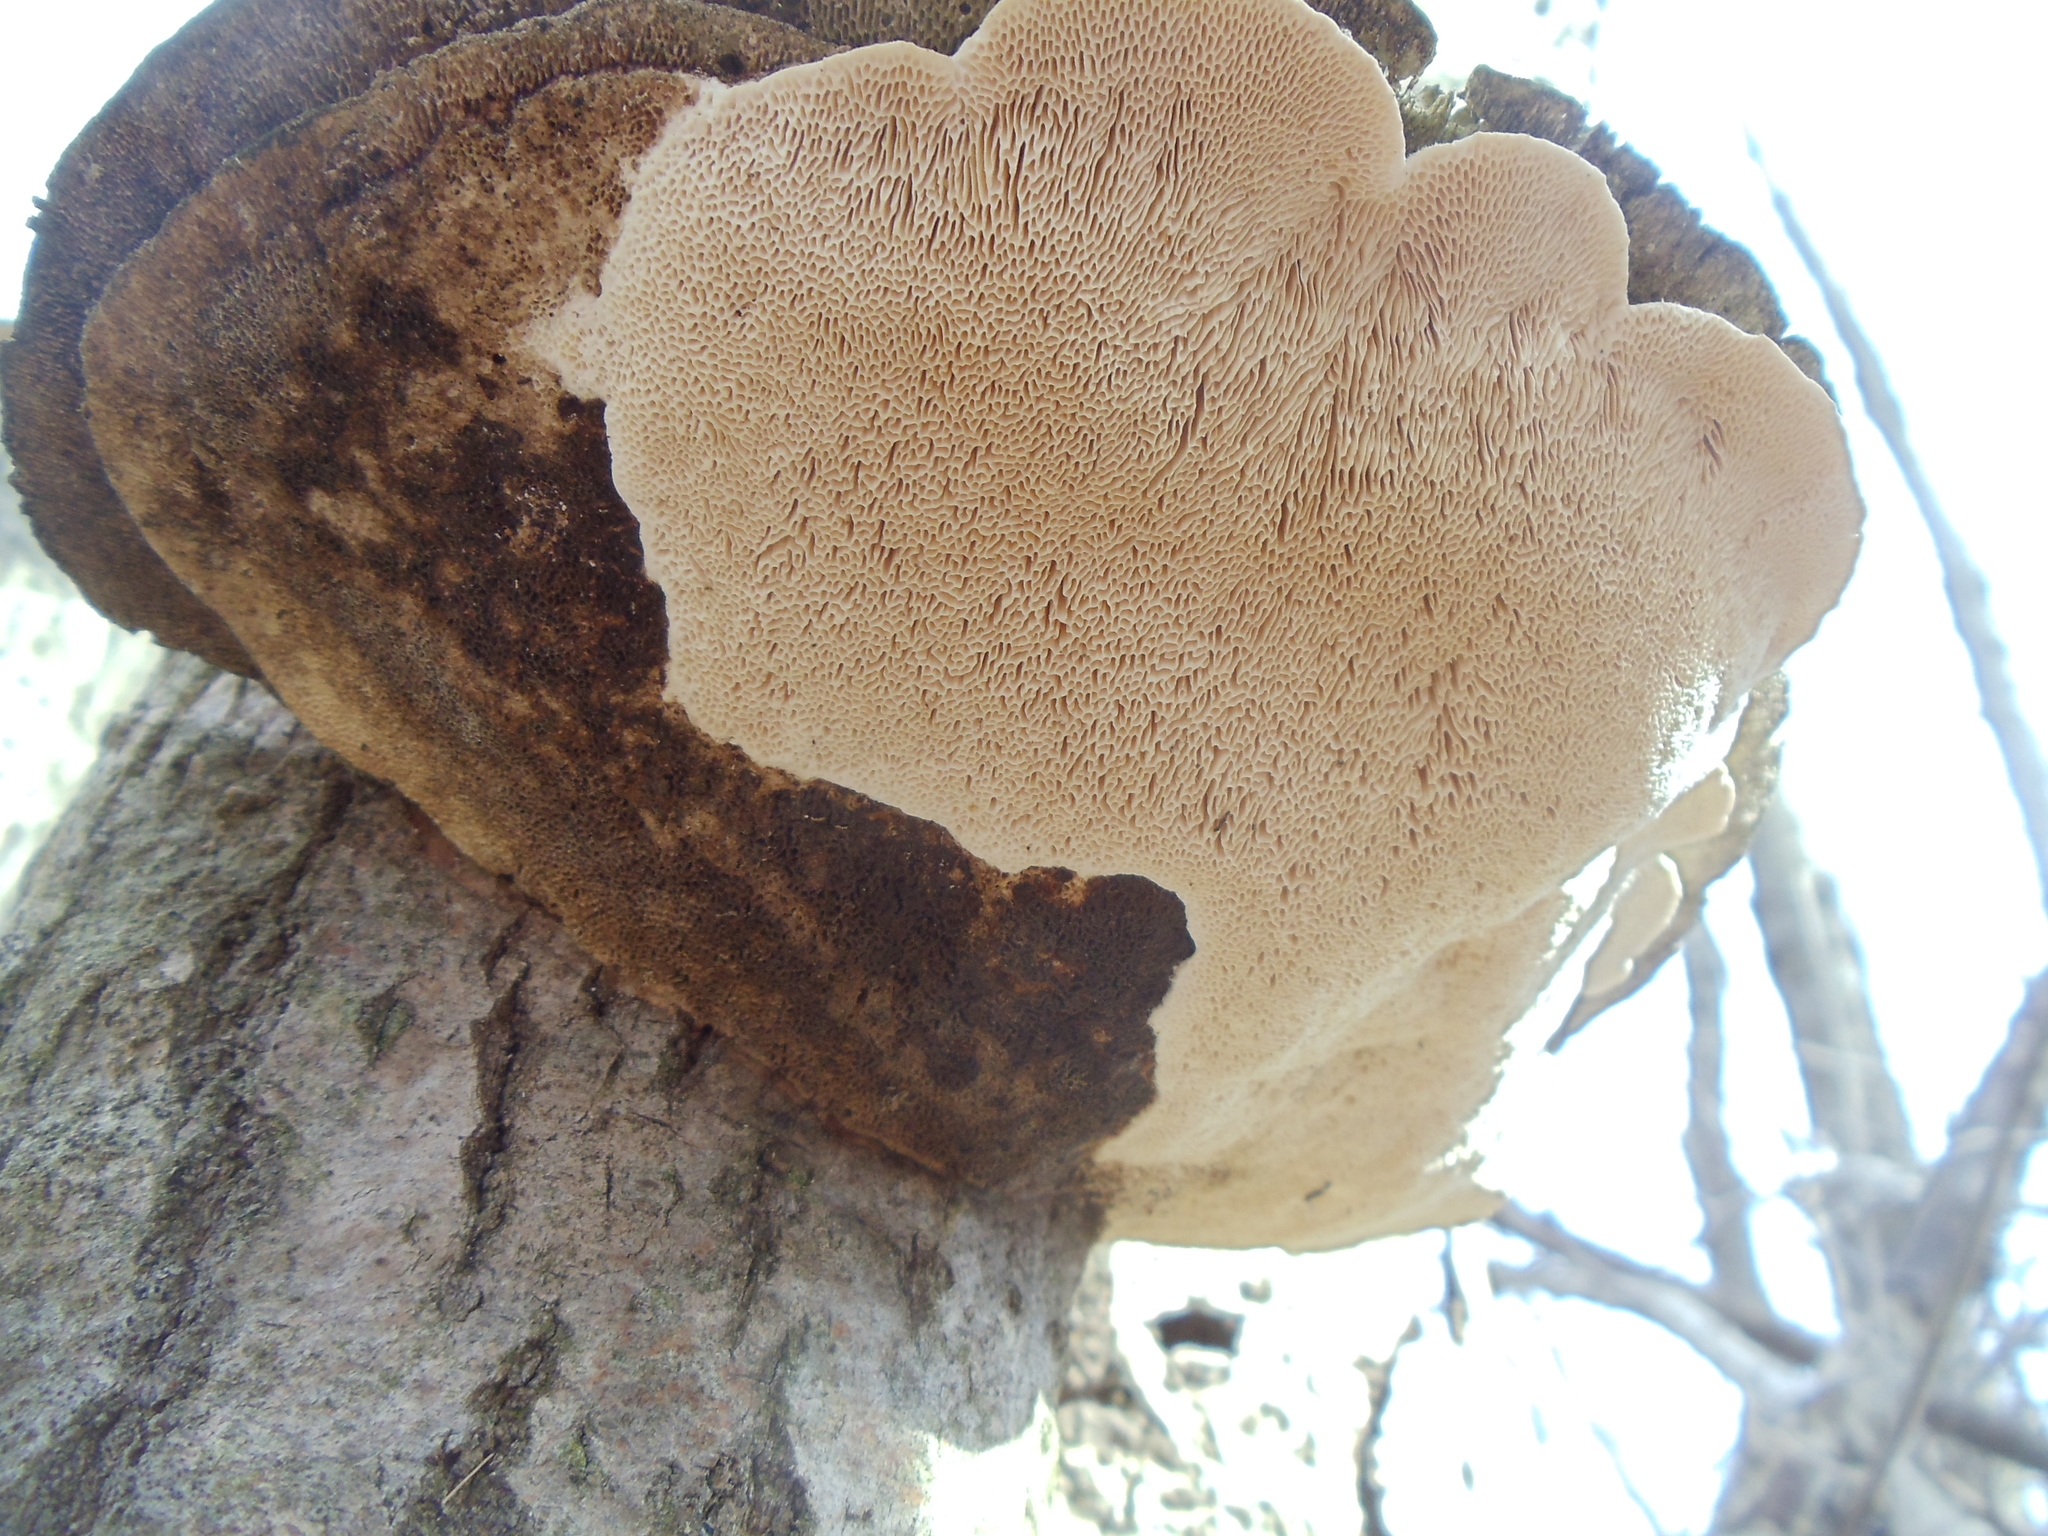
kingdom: Fungi
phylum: Basidiomycota
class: Agaricomycetes
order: Polyporales
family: Polyporaceae
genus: Trametes
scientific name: Trametes gibbosa
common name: Lumpy bracket
